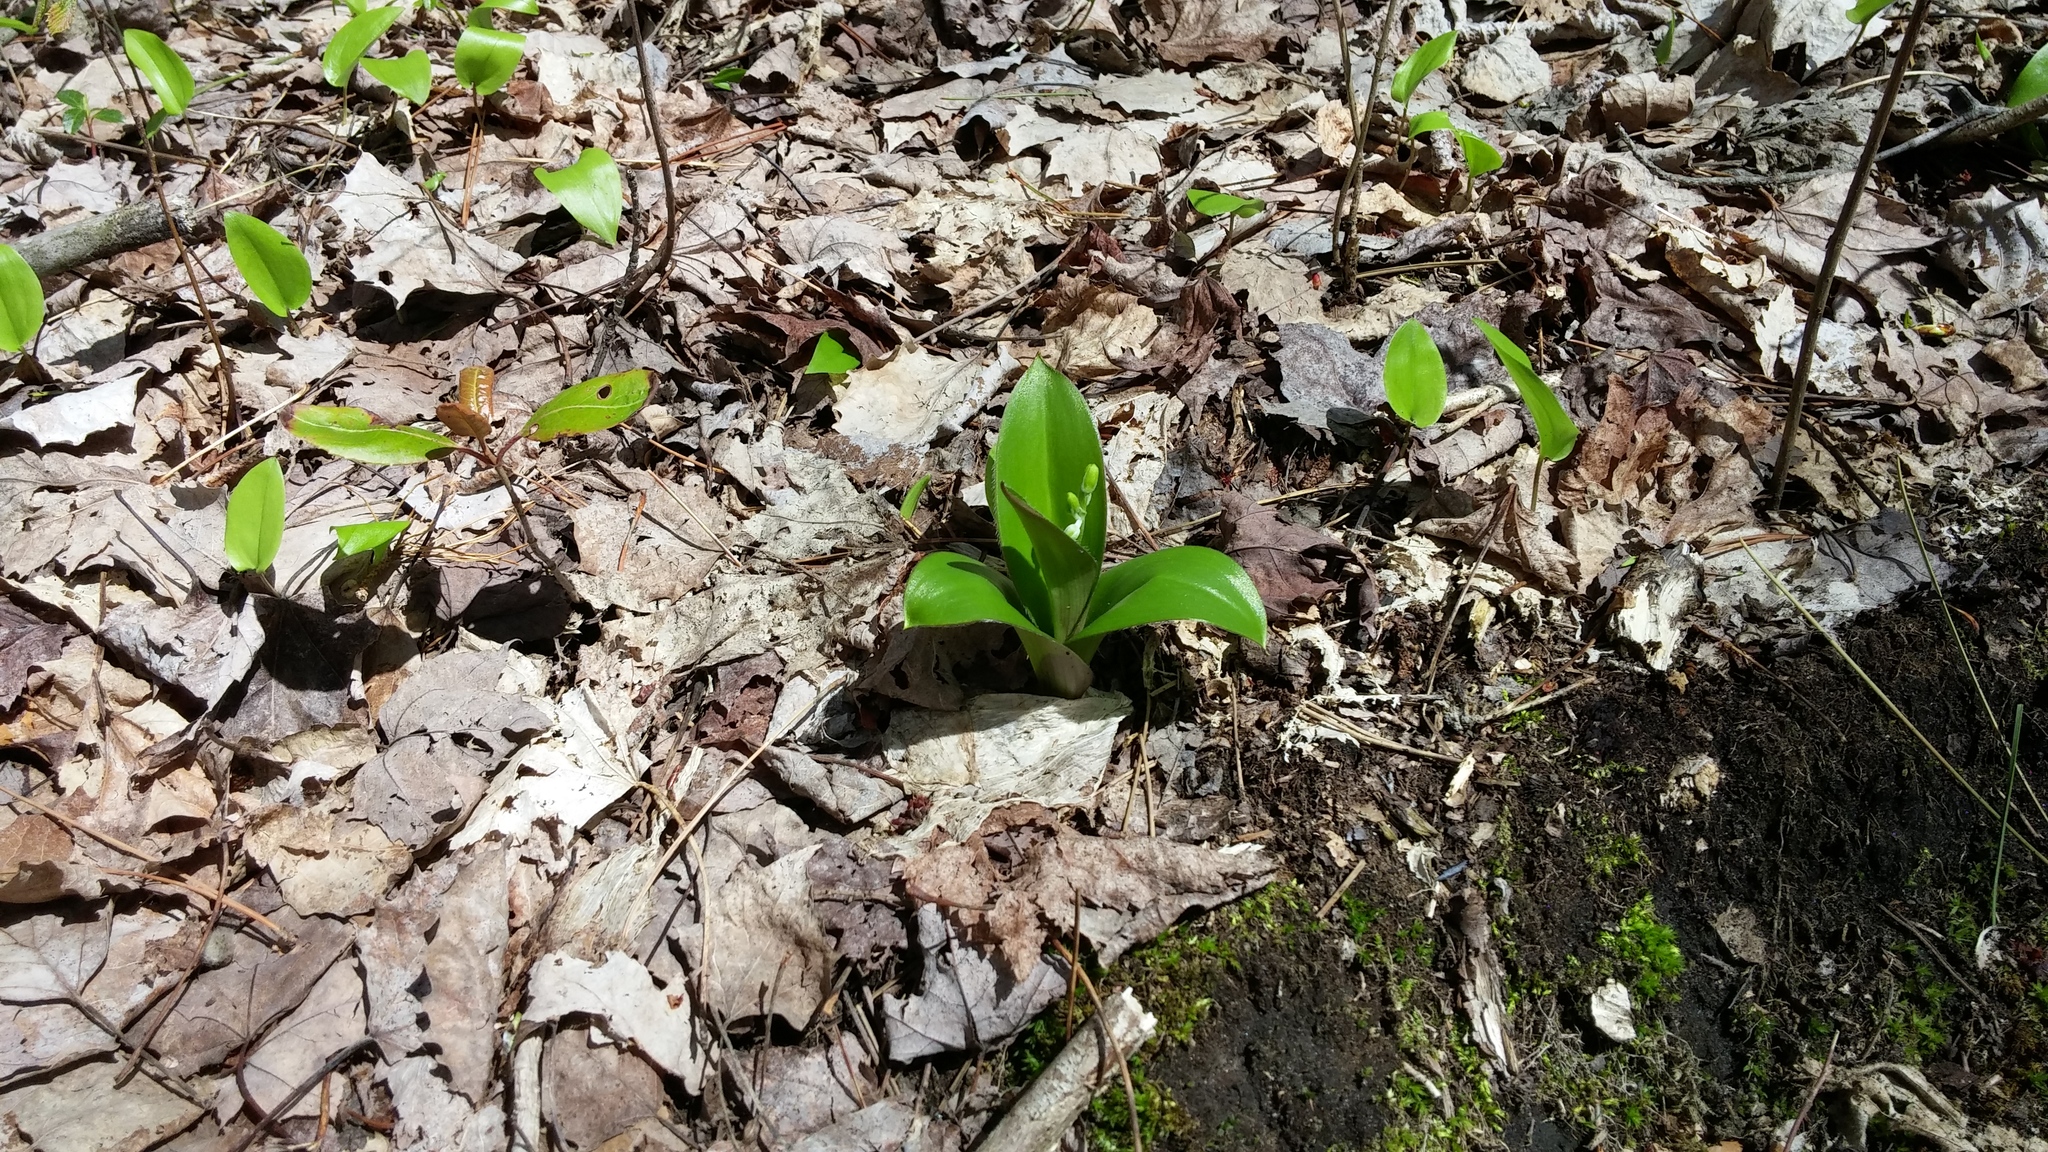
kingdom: Plantae
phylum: Tracheophyta
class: Liliopsida
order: Liliales
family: Liliaceae
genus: Clintonia
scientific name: Clintonia borealis
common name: Yellow clintonia
